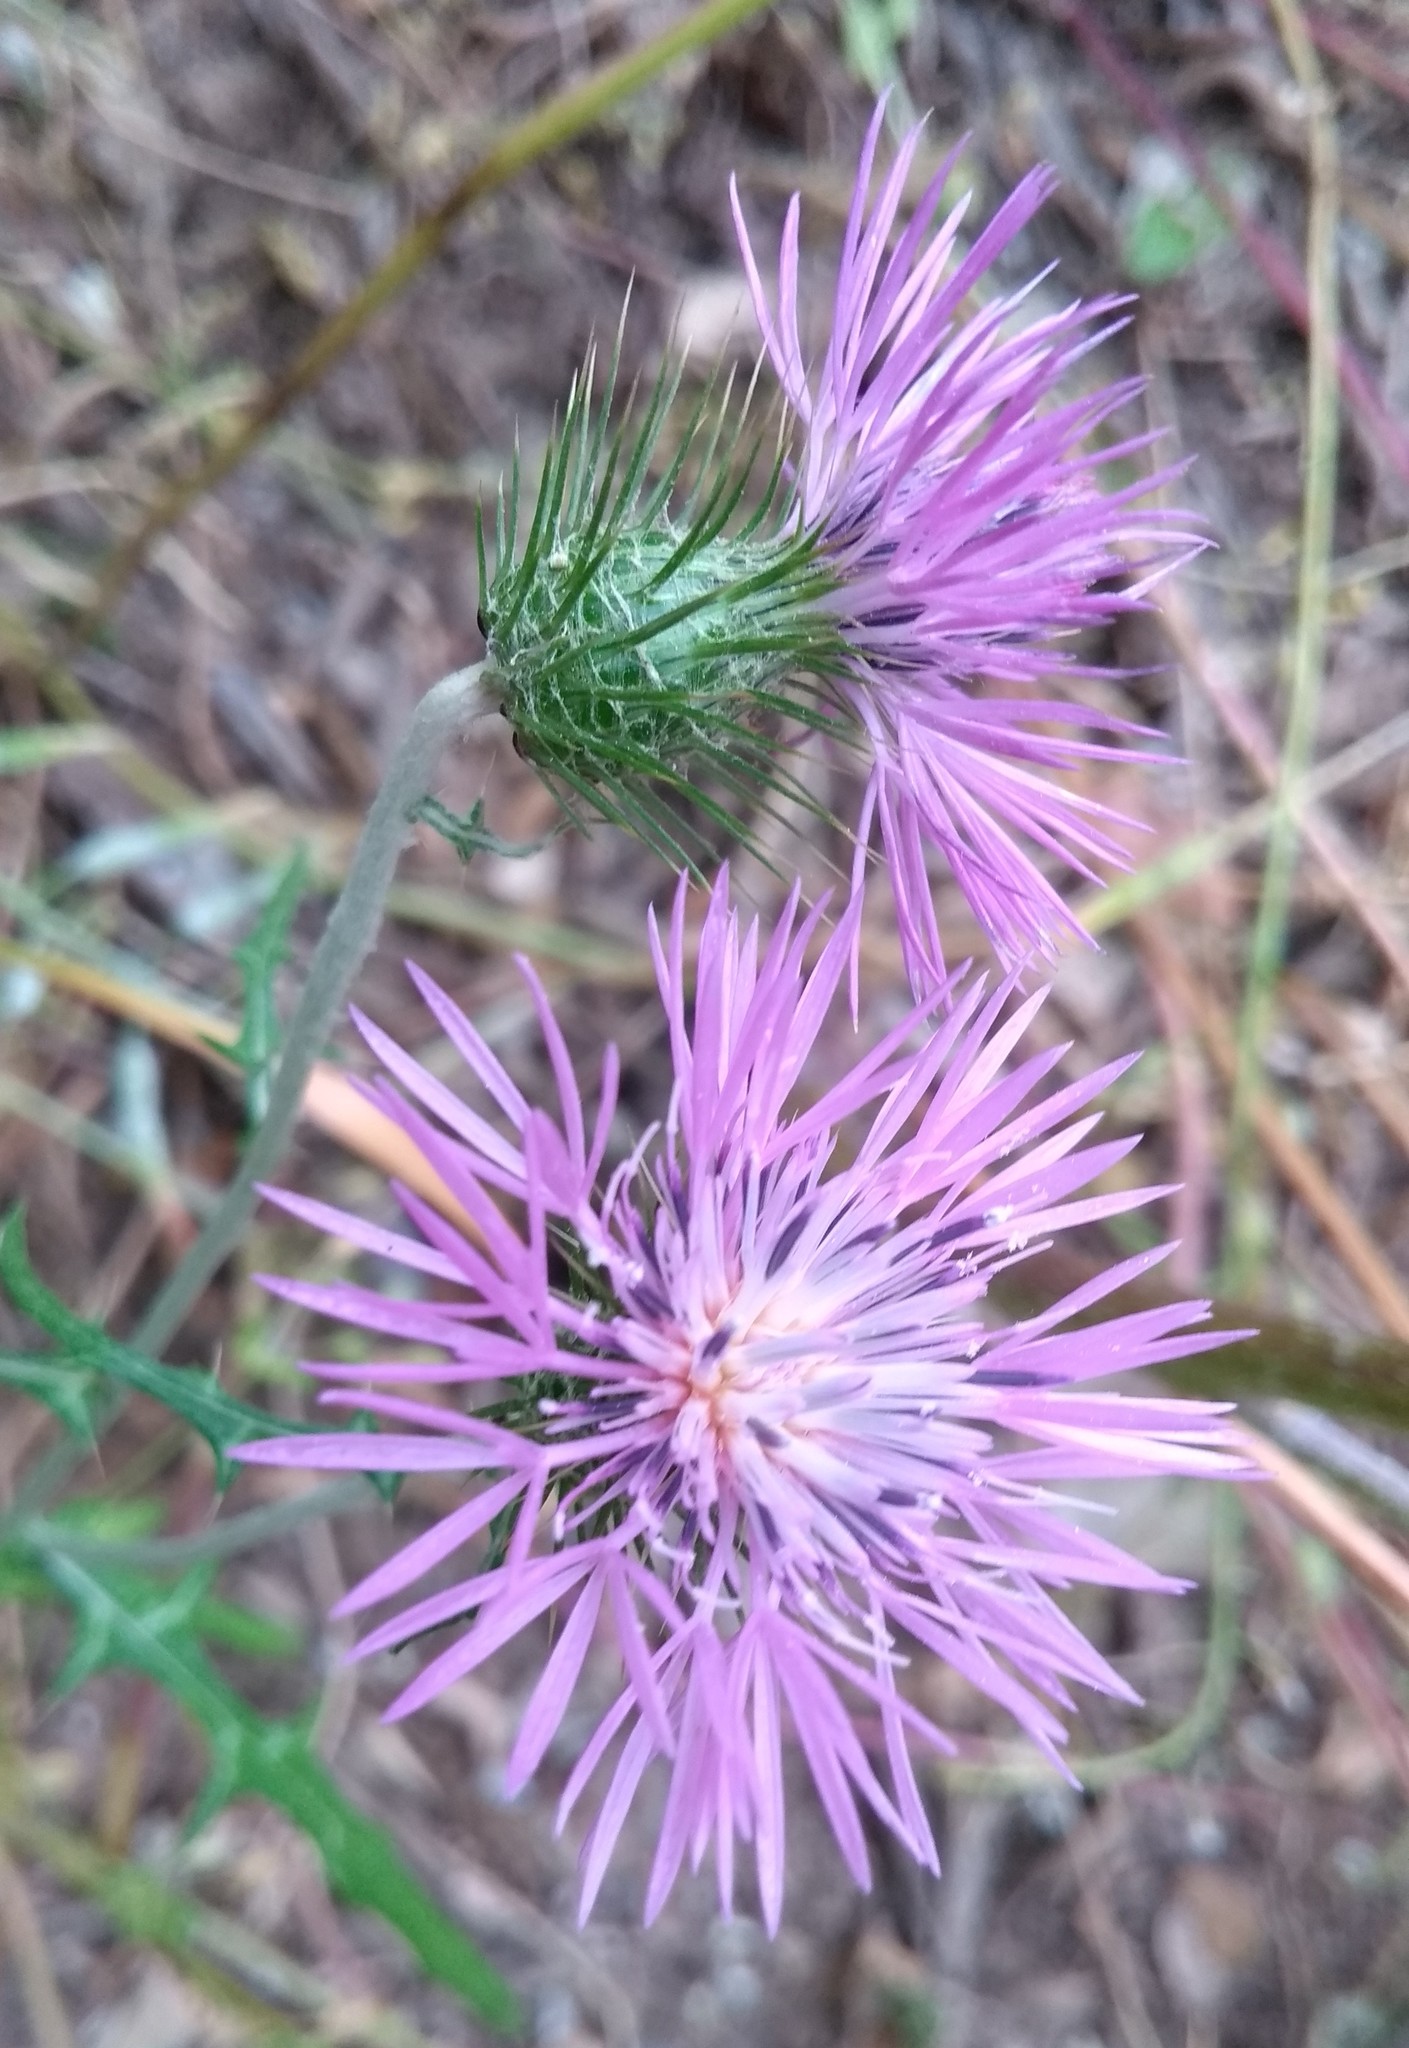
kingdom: Plantae
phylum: Tracheophyta
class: Magnoliopsida
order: Asterales
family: Asteraceae
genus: Galactites
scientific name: Galactites tomentosa
